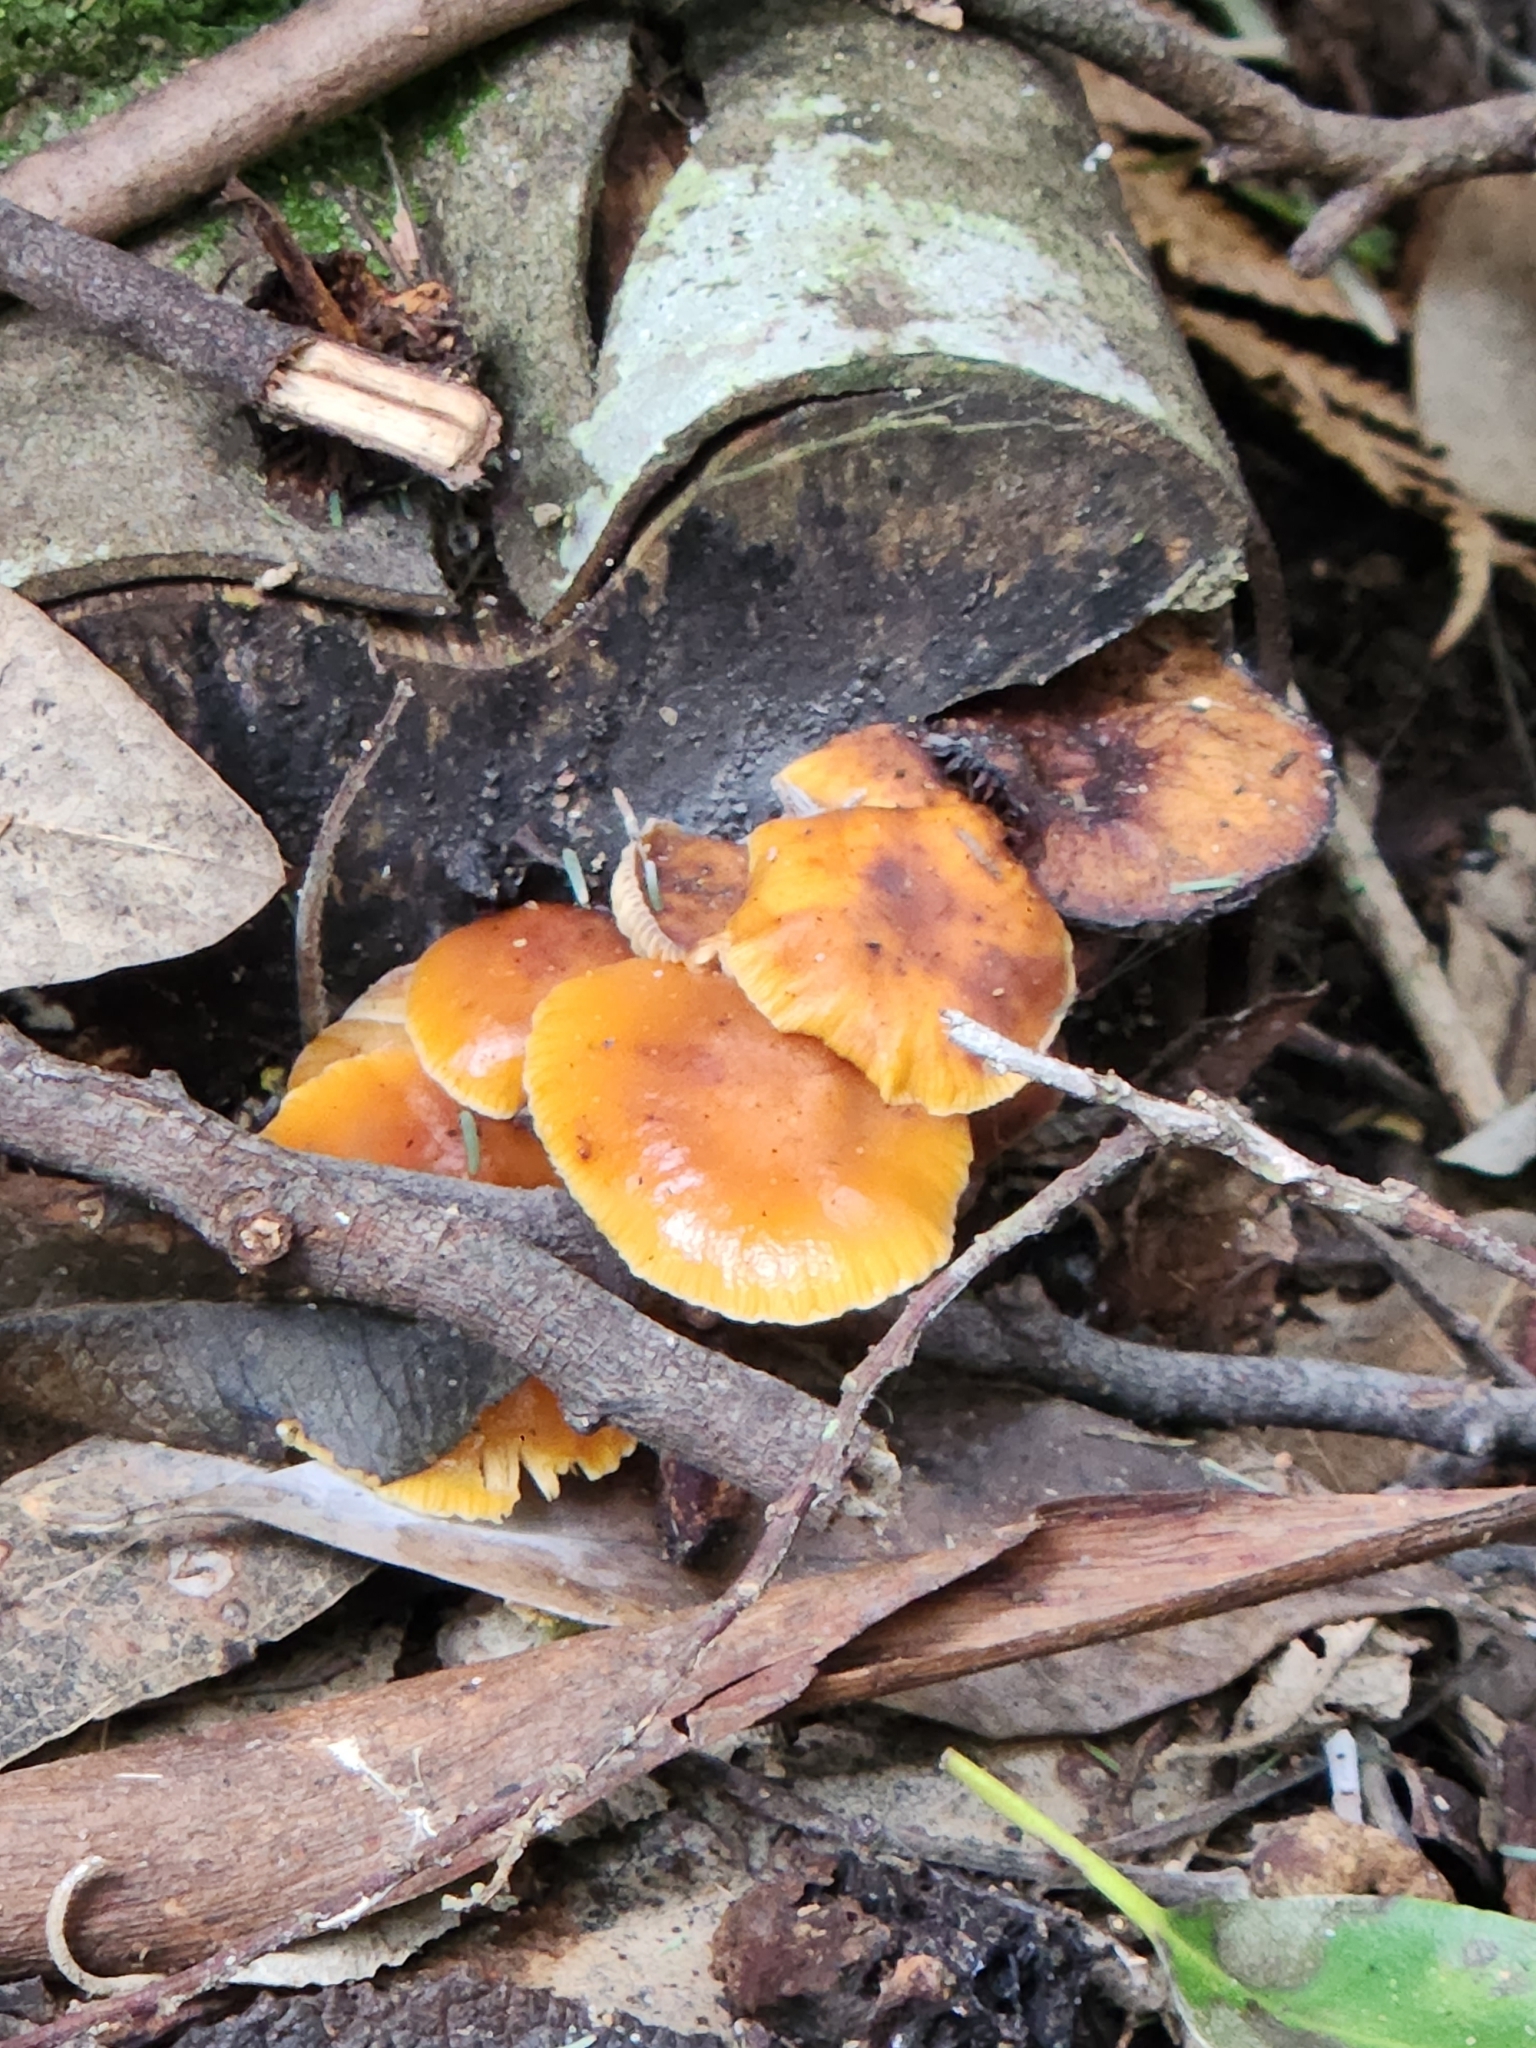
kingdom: Fungi
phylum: Basidiomycota
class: Agaricomycetes
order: Agaricales
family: Physalacriaceae
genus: Flammulina
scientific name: Flammulina velutipes
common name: Velvet shank
